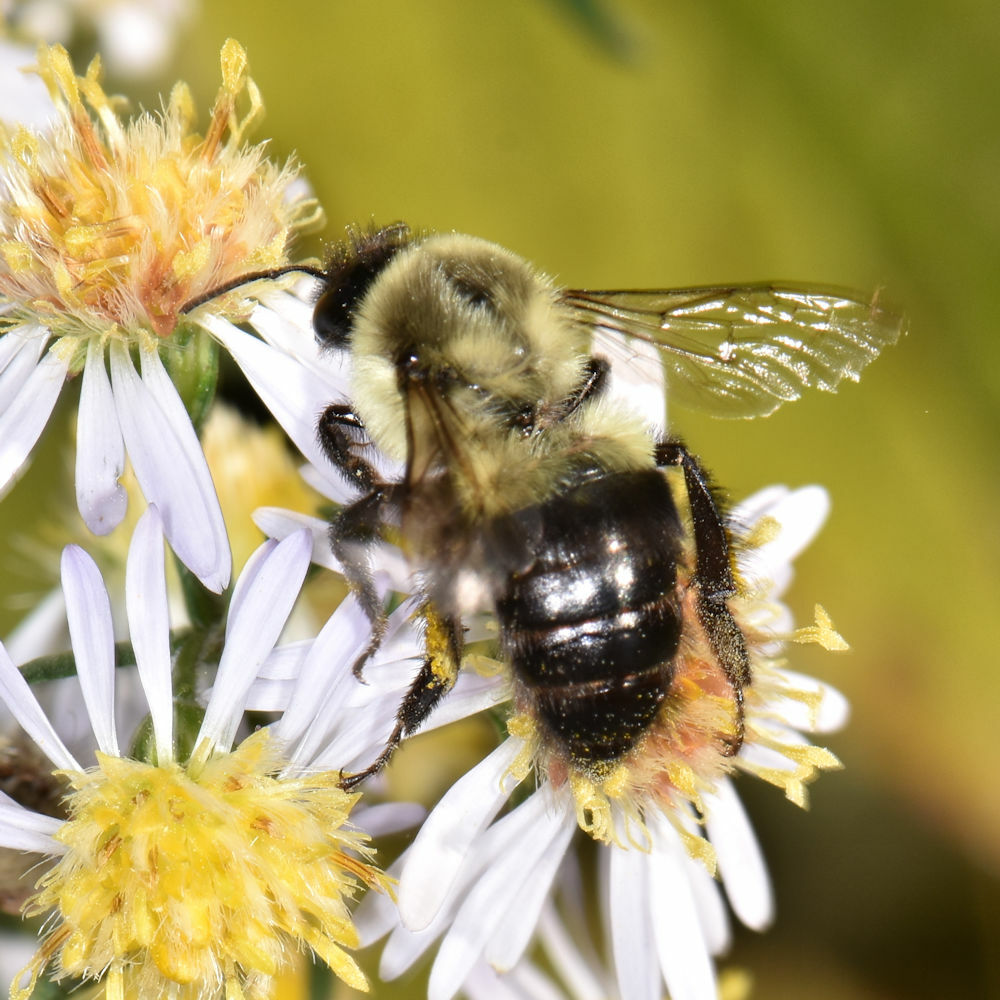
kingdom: Animalia
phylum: Arthropoda
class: Insecta
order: Hymenoptera
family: Apidae
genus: Bombus
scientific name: Bombus impatiens
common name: Common eastern bumble bee
